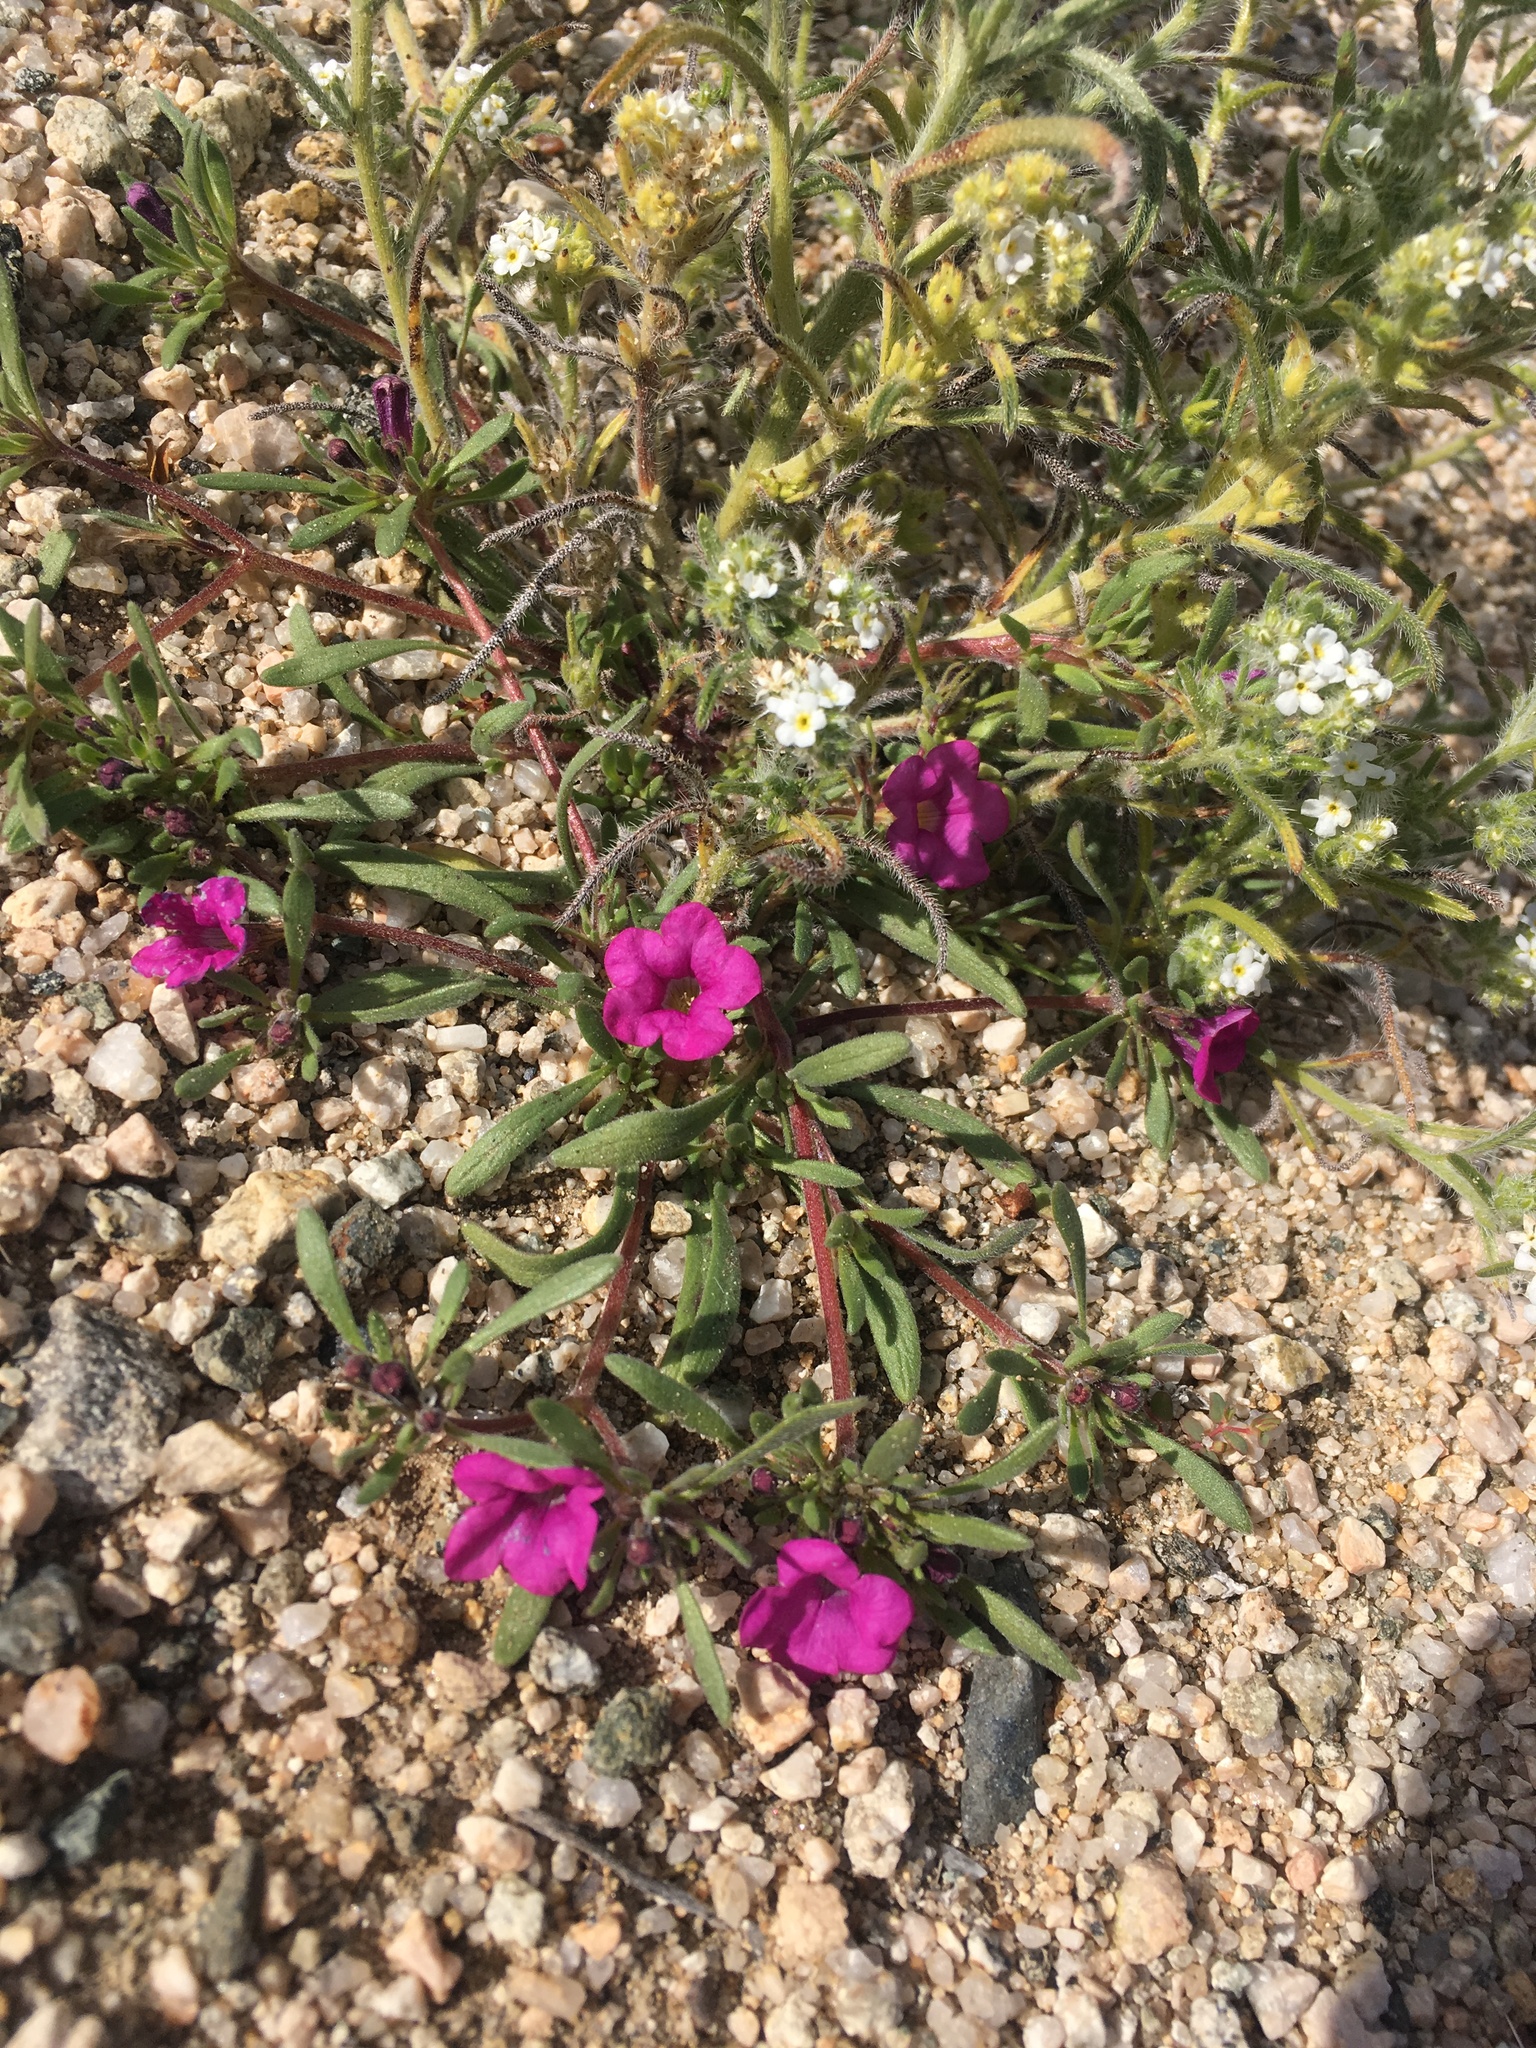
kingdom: Plantae
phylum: Tracheophyta
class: Magnoliopsida
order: Boraginales
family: Namaceae
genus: Nama
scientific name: Nama demissa
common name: Leafy nama
